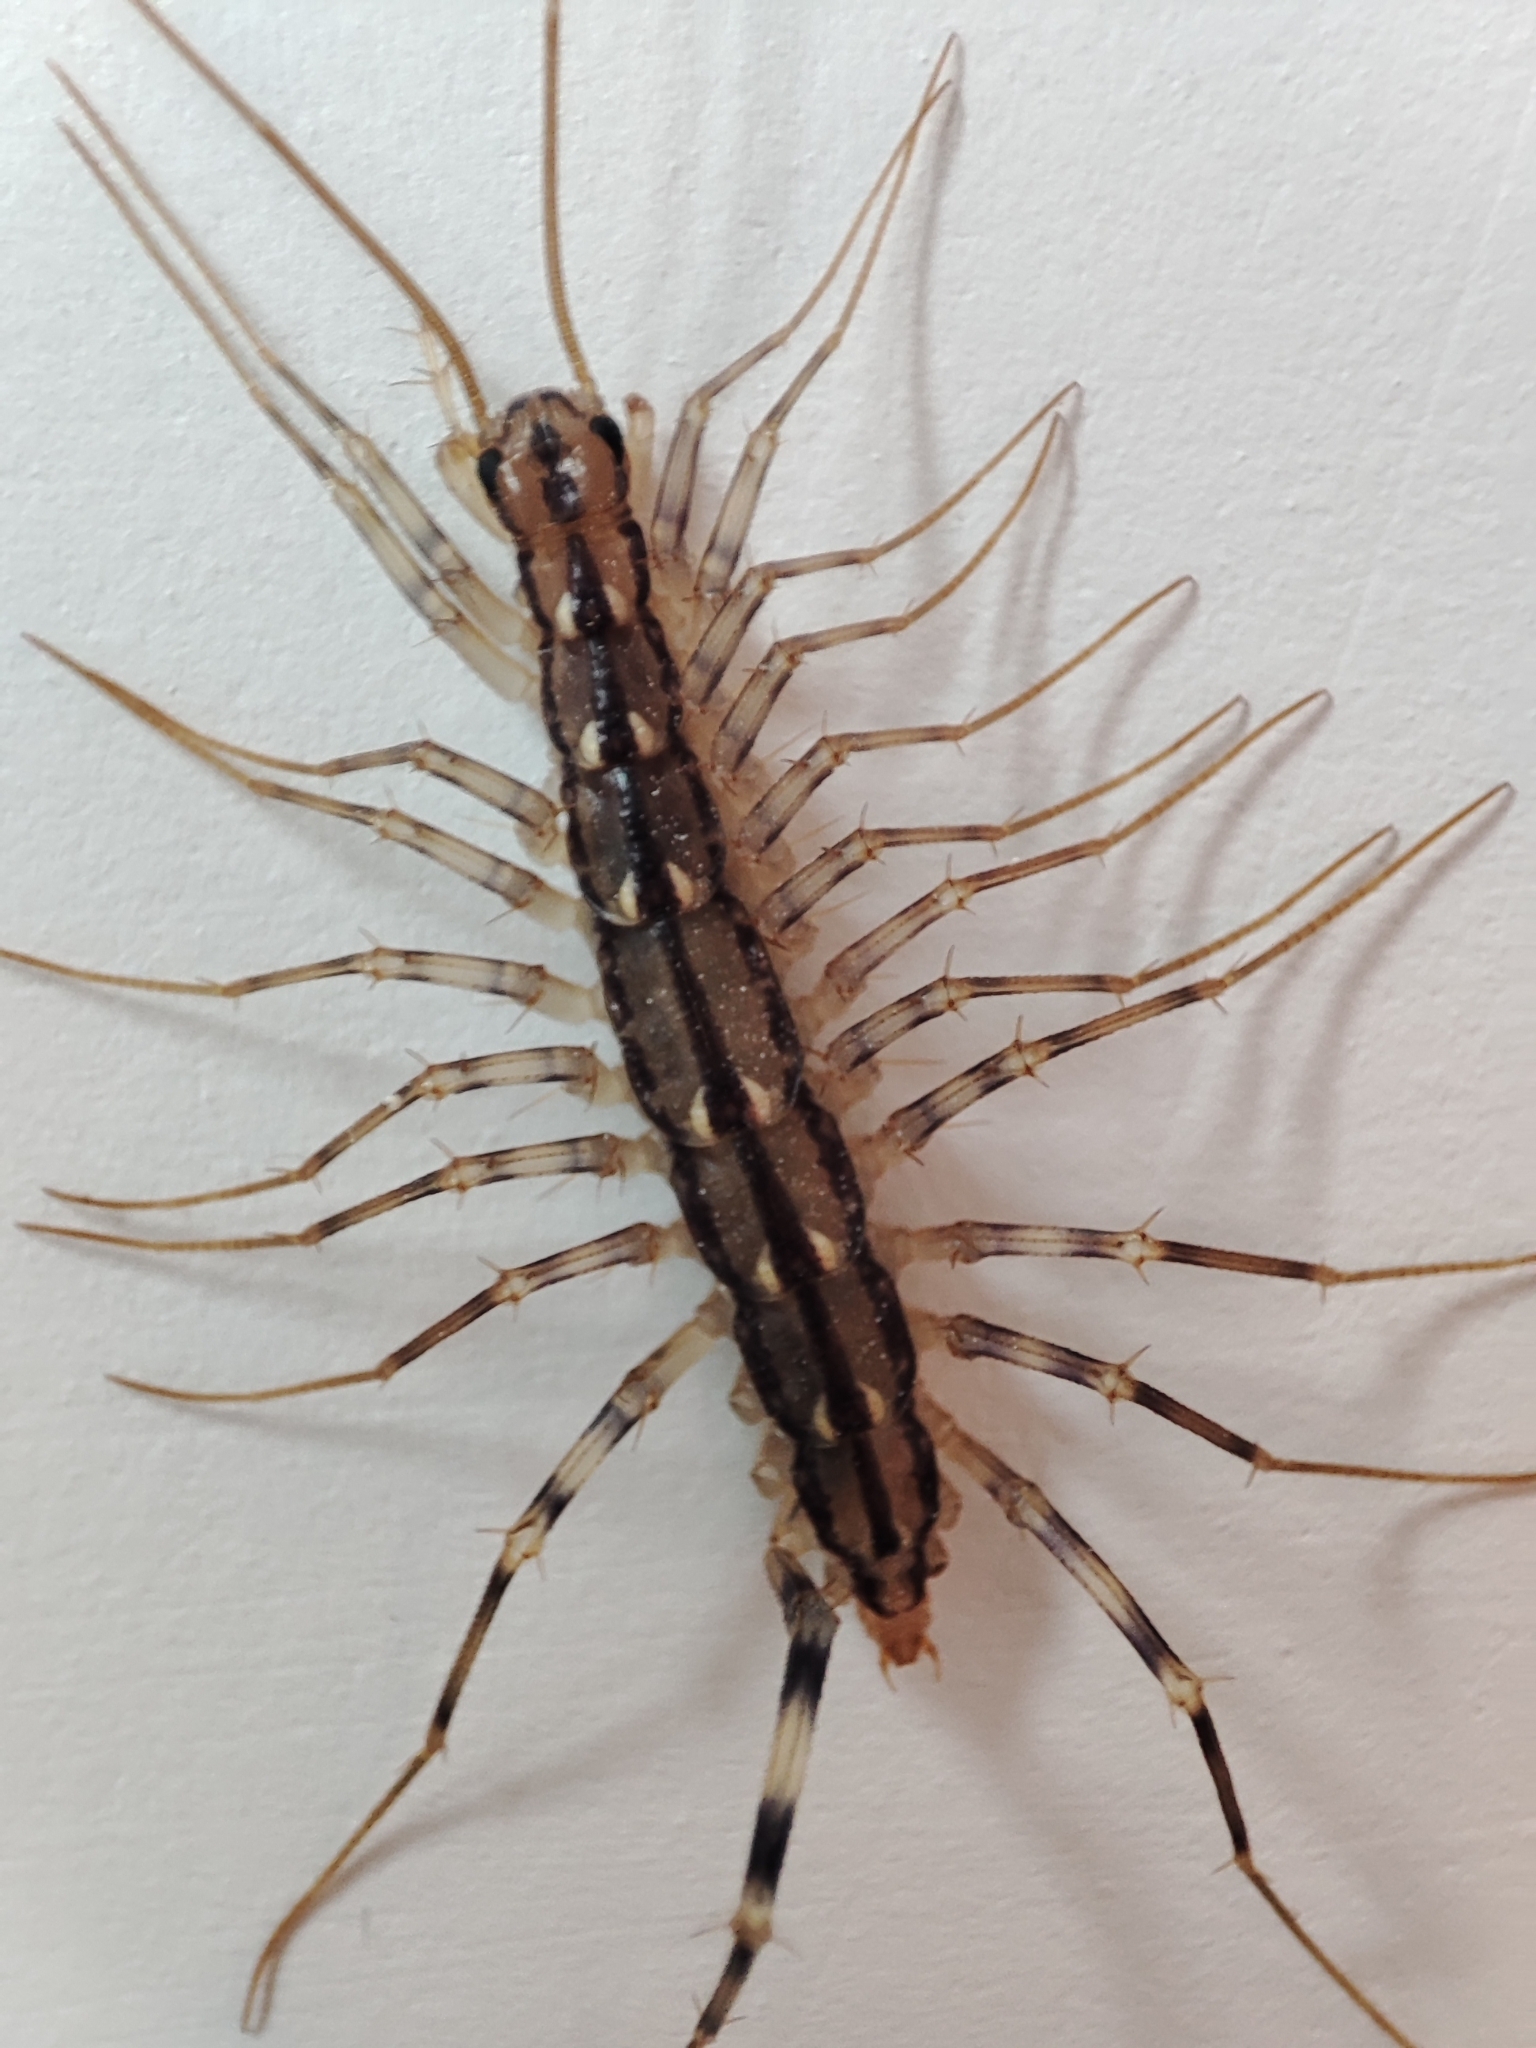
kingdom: Animalia
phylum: Arthropoda
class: Chilopoda
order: Scutigeromorpha
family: Scutigeridae
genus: Scutigera
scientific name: Scutigera coleoptrata
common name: House centipede
